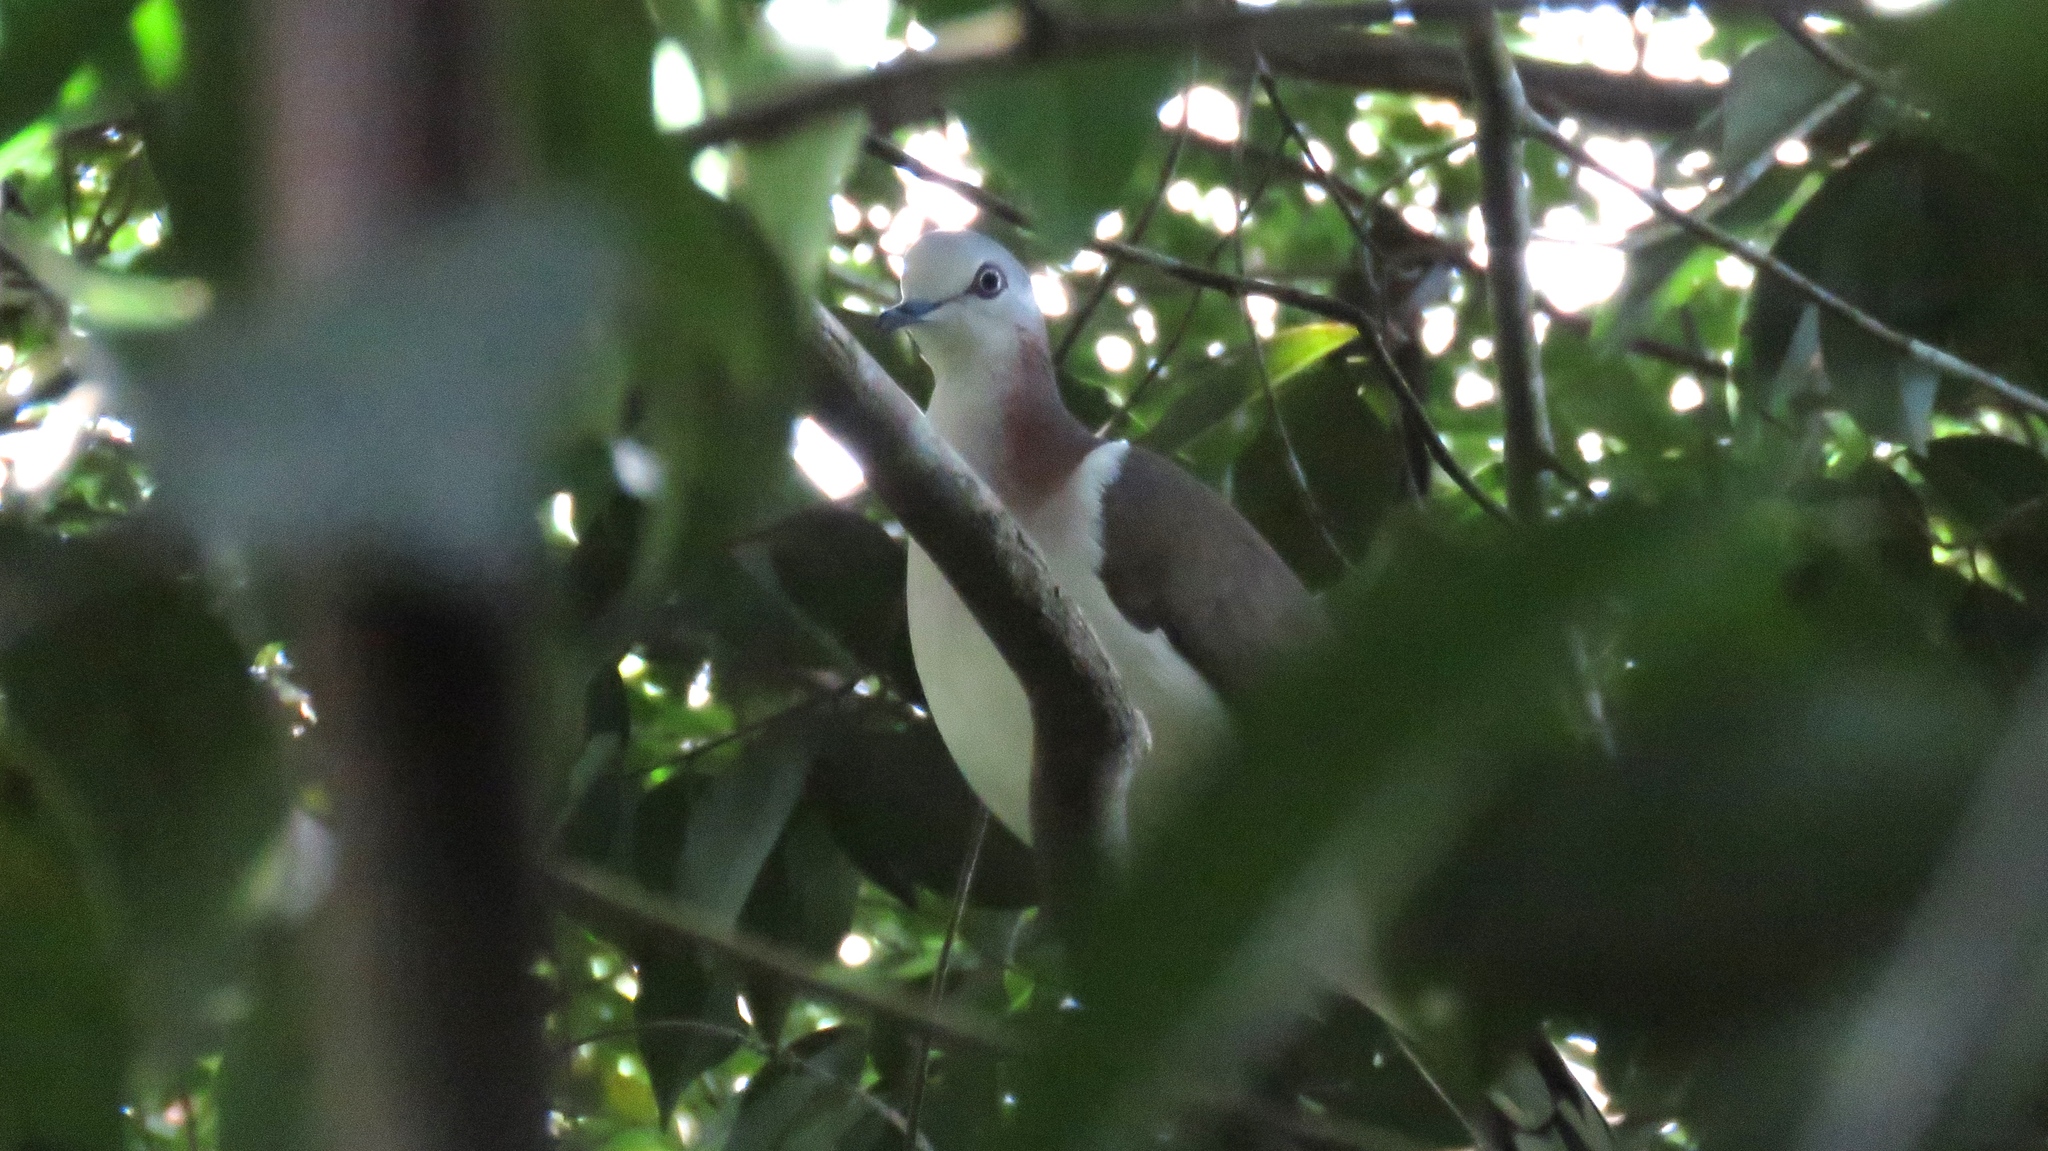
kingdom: Animalia
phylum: Chordata
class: Aves
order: Columbiformes
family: Columbidae
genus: Leptotila
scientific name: Leptotila jamaicensis
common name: Caribbean dove
